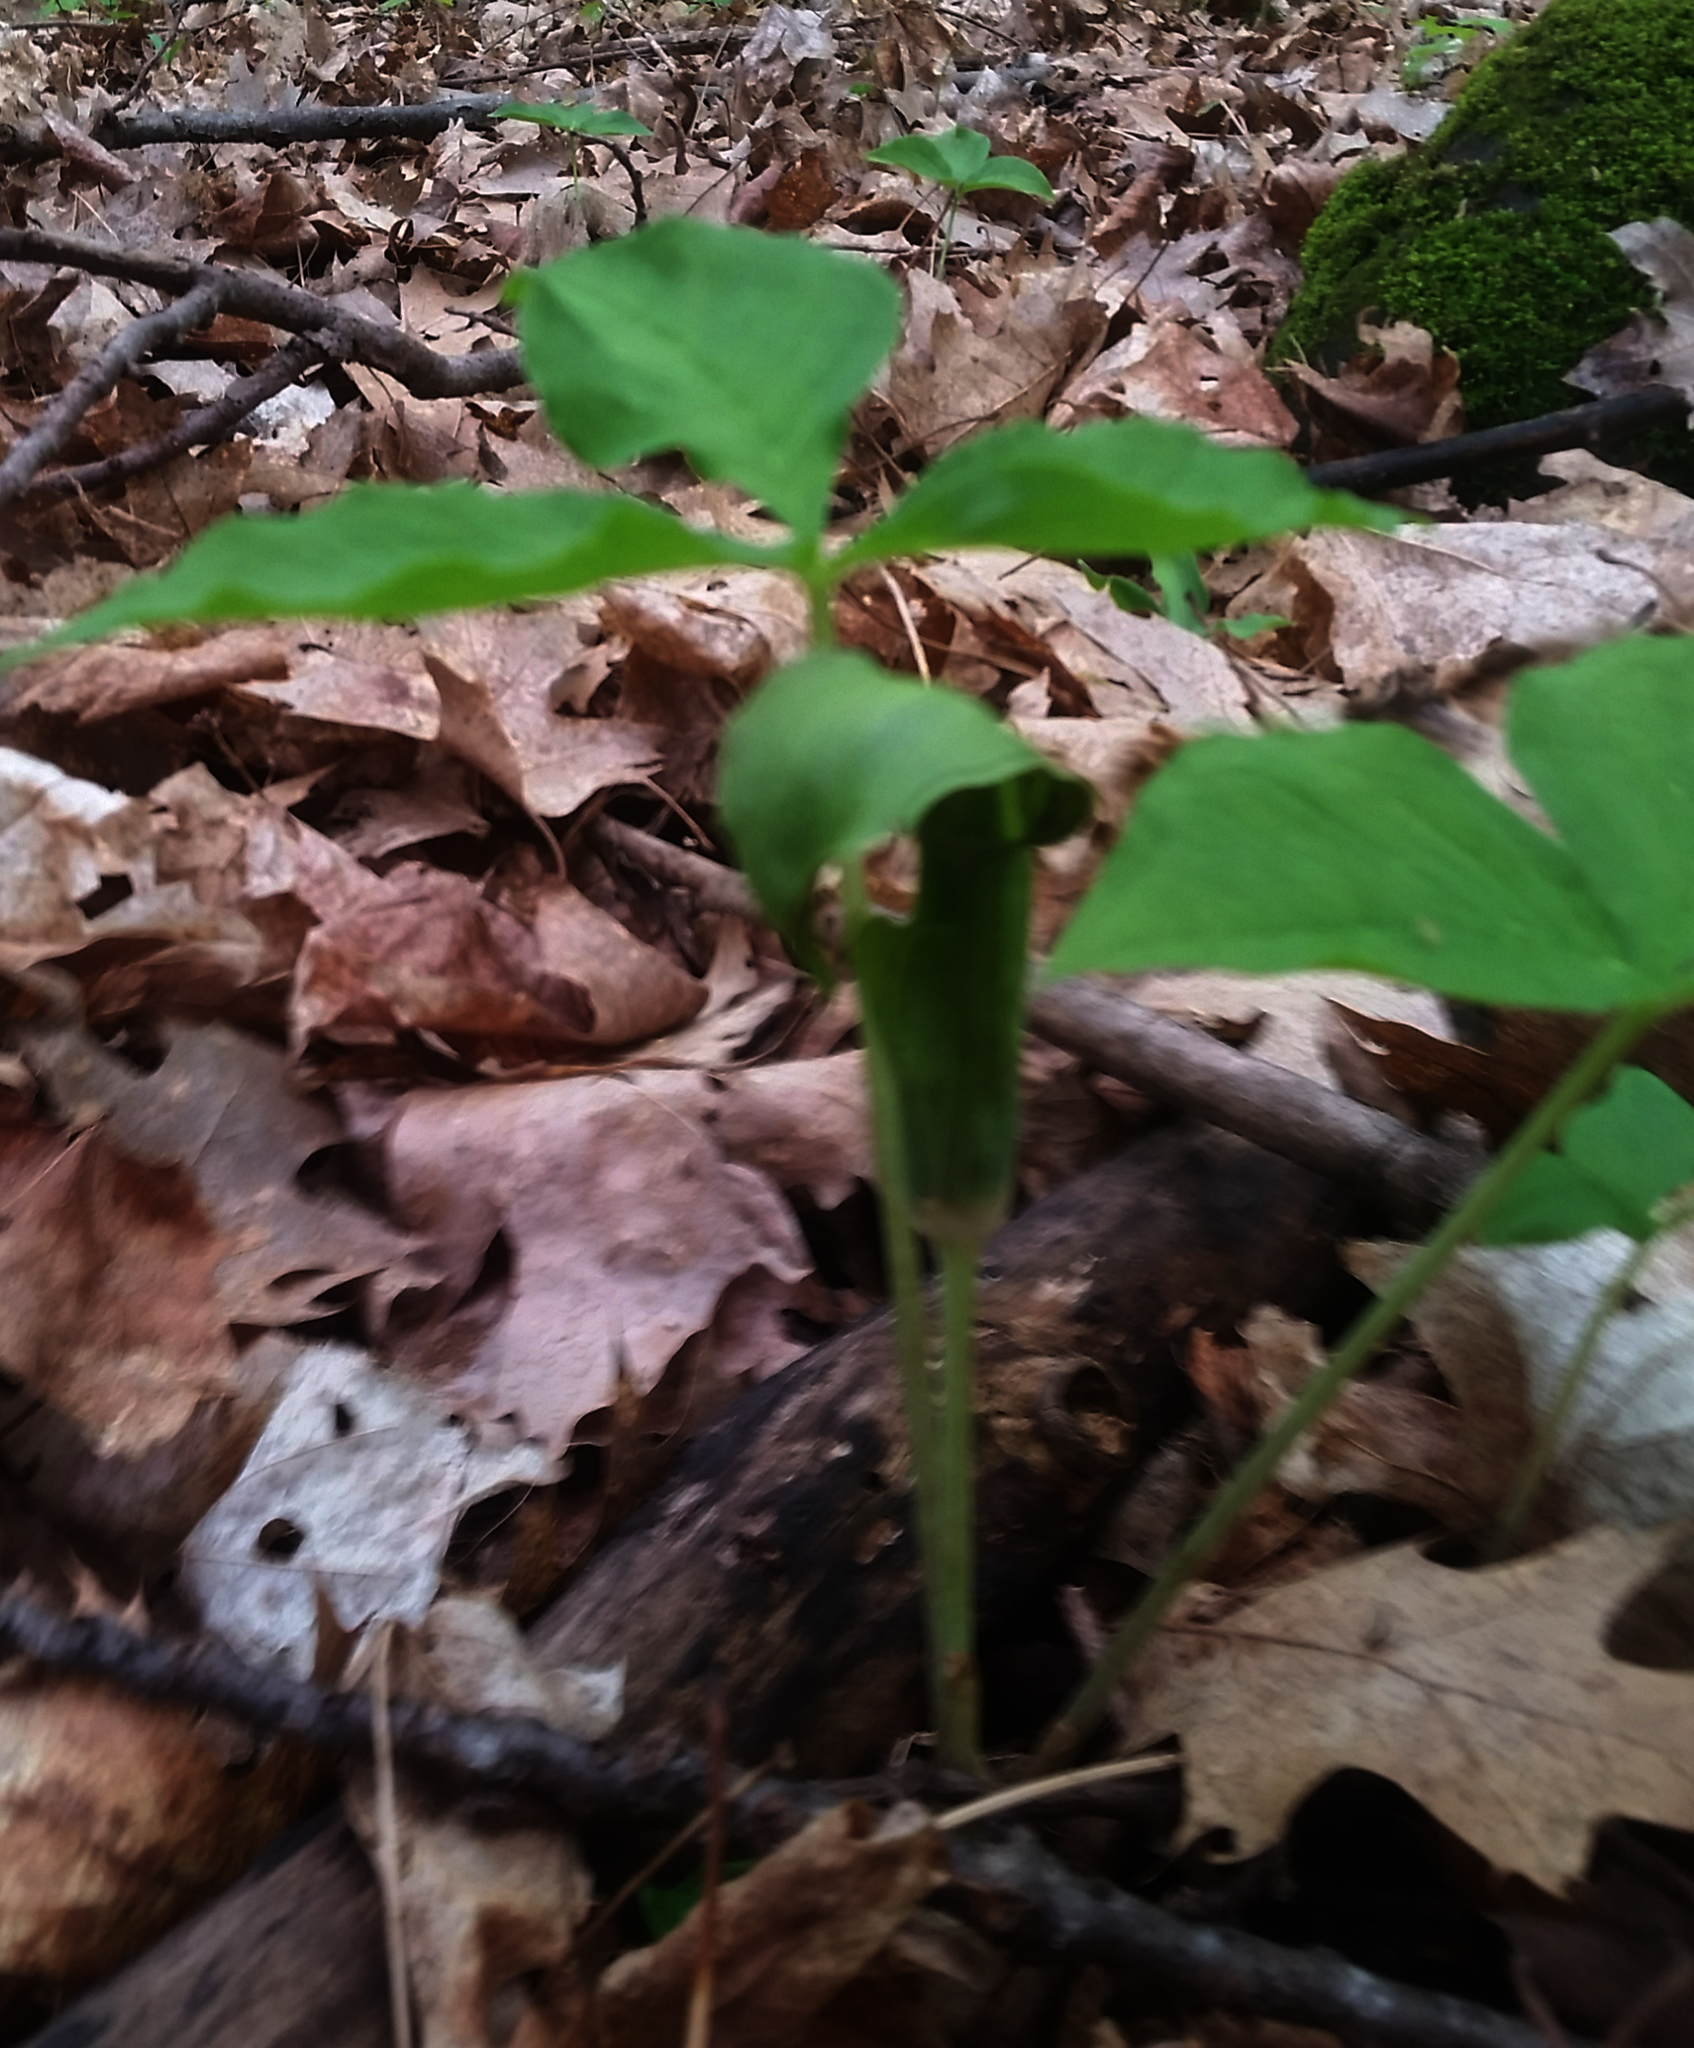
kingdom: Plantae
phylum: Tracheophyta
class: Liliopsida
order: Alismatales
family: Araceae
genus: Arisaema
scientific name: Arisaema triphyllum
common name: Jack-in-the-pulpit
